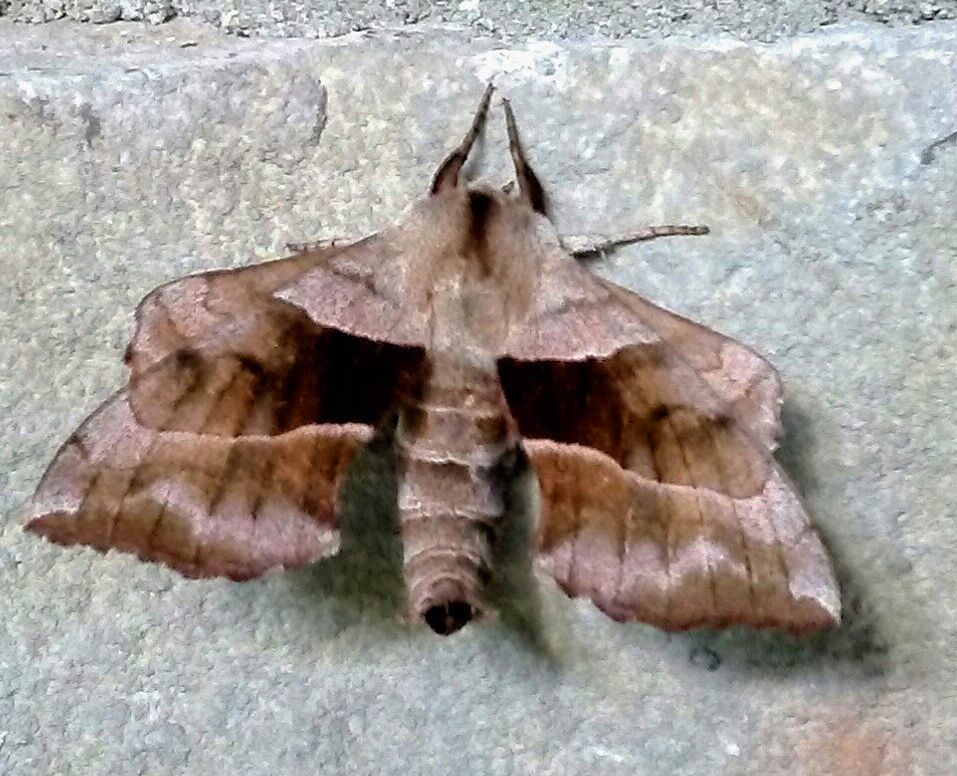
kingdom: Animalia
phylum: Arthropoda
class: Insecta
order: Lepidoptera
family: Sphingidae
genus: Amorpha
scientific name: Amorpha juglandis
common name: Walnut sphinx
